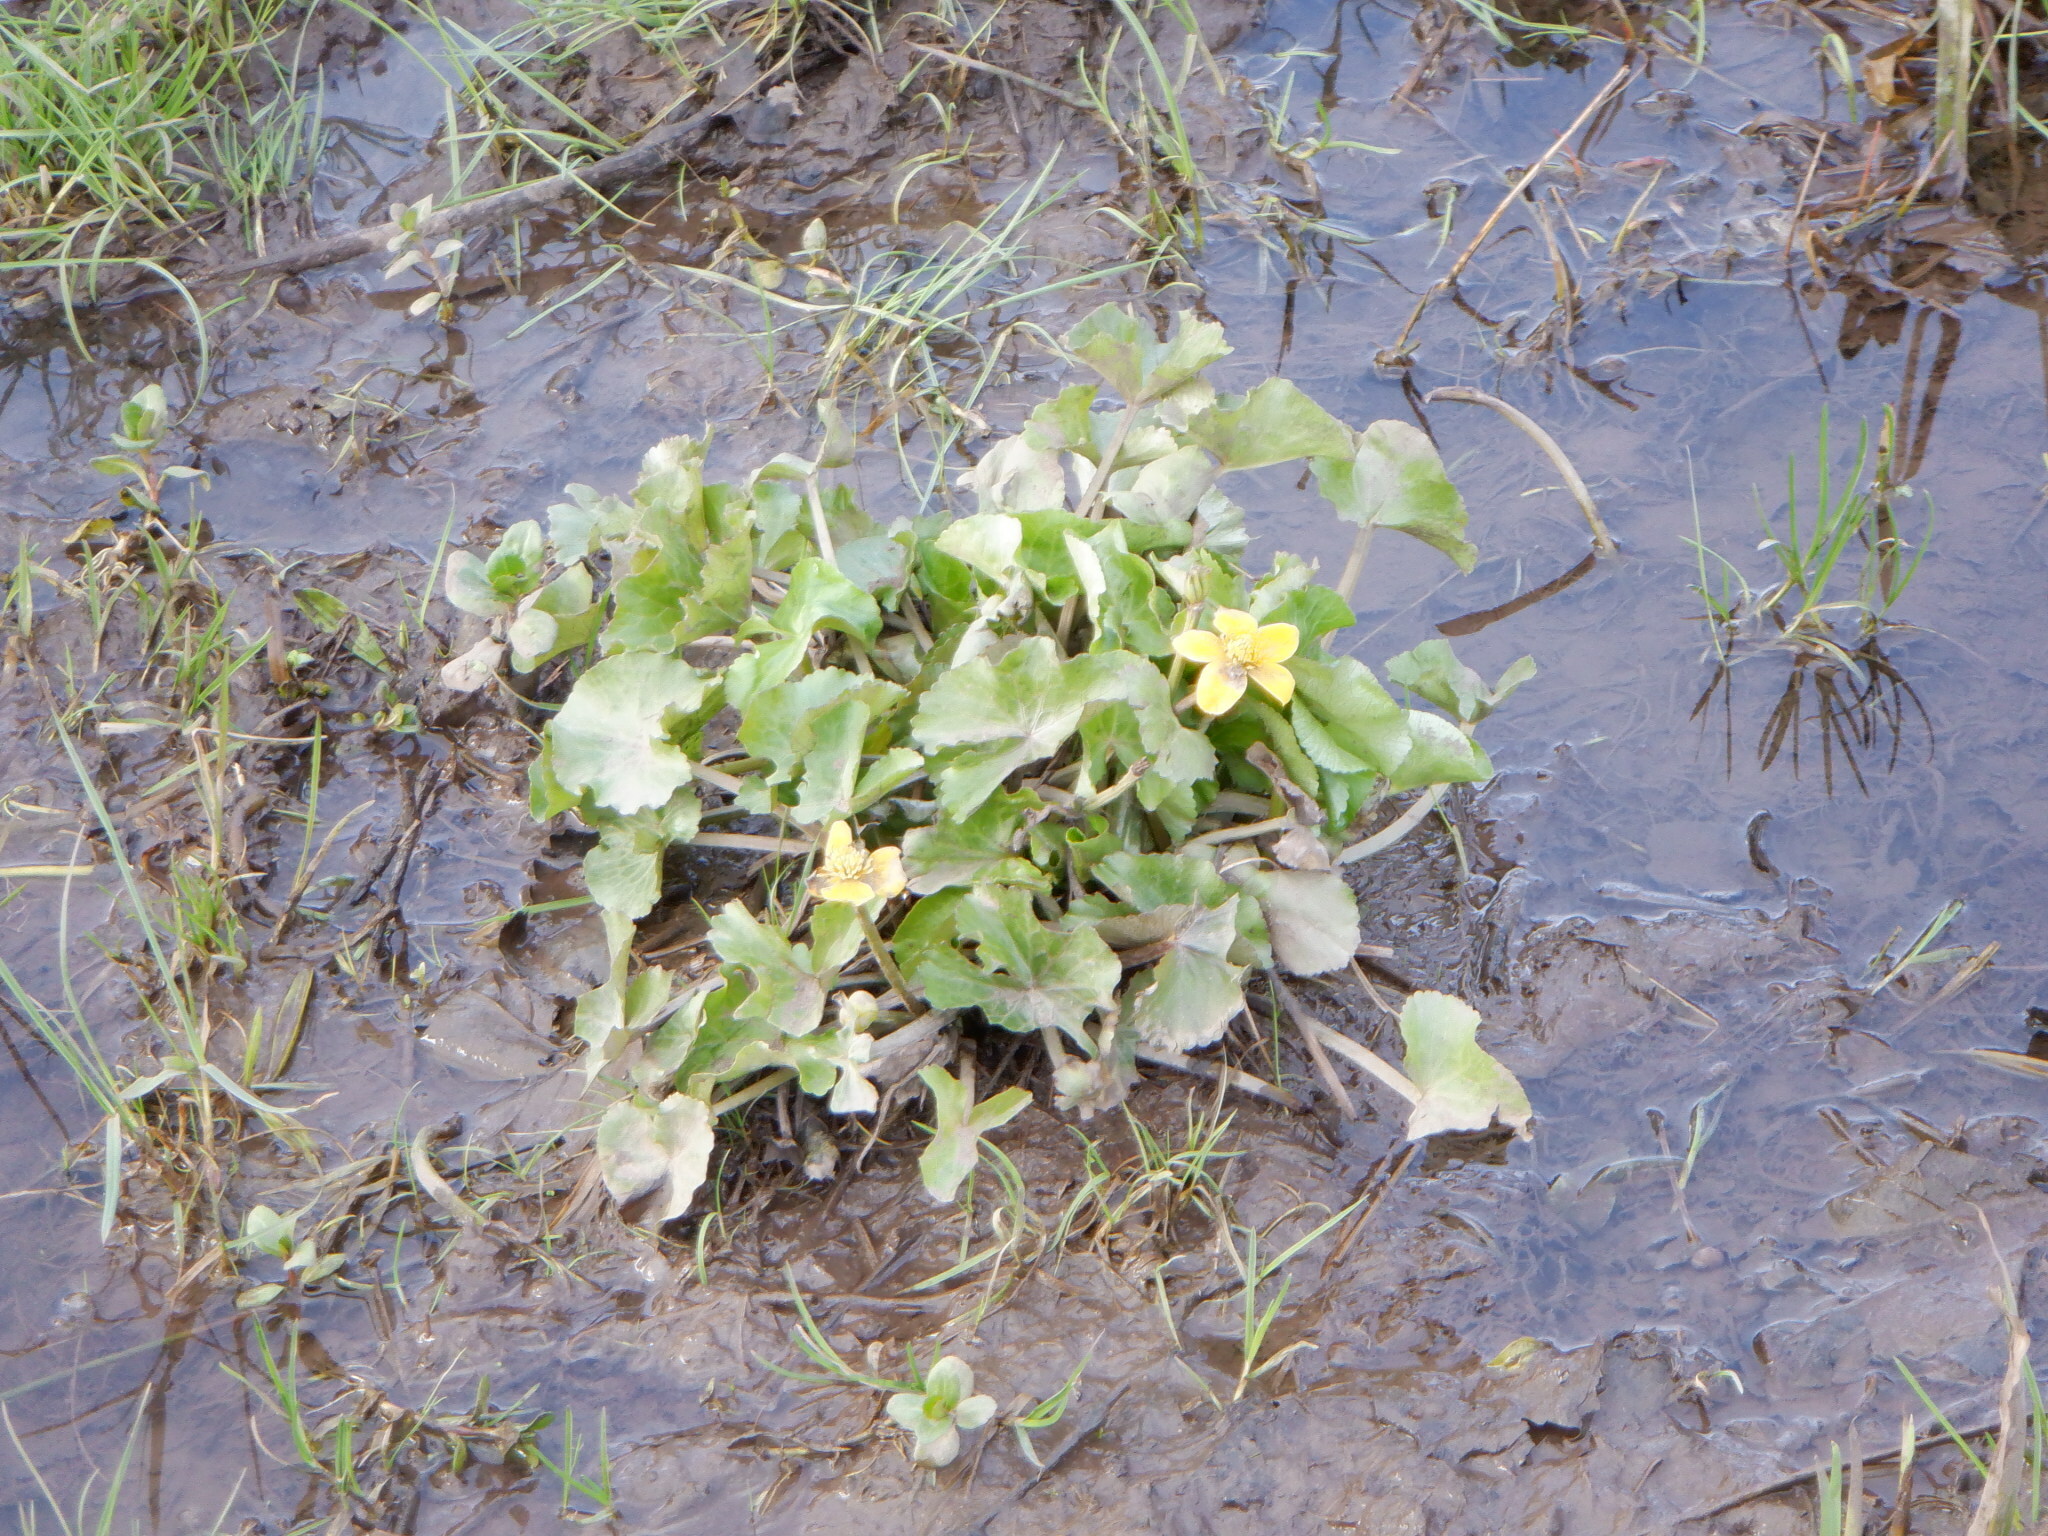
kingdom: Plantae
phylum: Tracheophyta
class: Magnoliopsida
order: Ranunculales
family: Ranunculaceae
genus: Caltha
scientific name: Caltha palustris
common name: Marsh marigold
